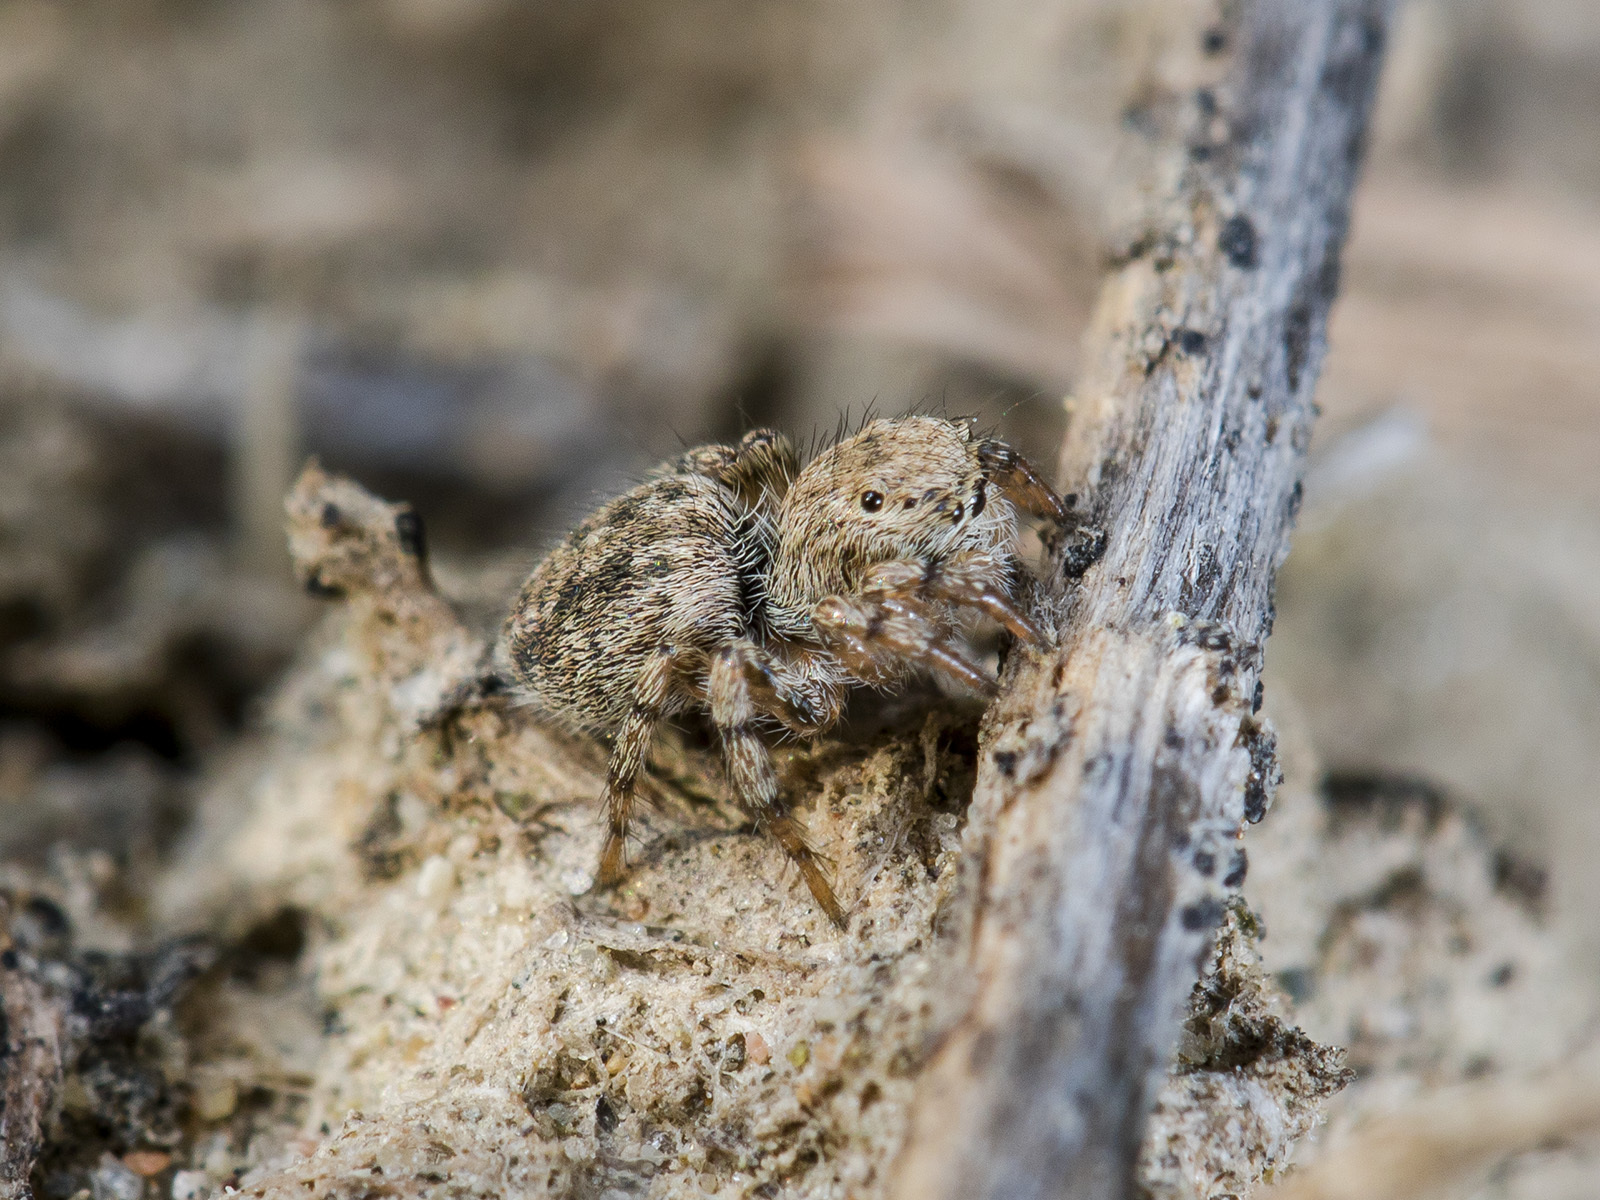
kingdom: Animalia
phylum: Arthropoda
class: Arachnida
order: Araneae
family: Salticidae
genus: Aelurillus
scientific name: Aelurillus dubatolovi
